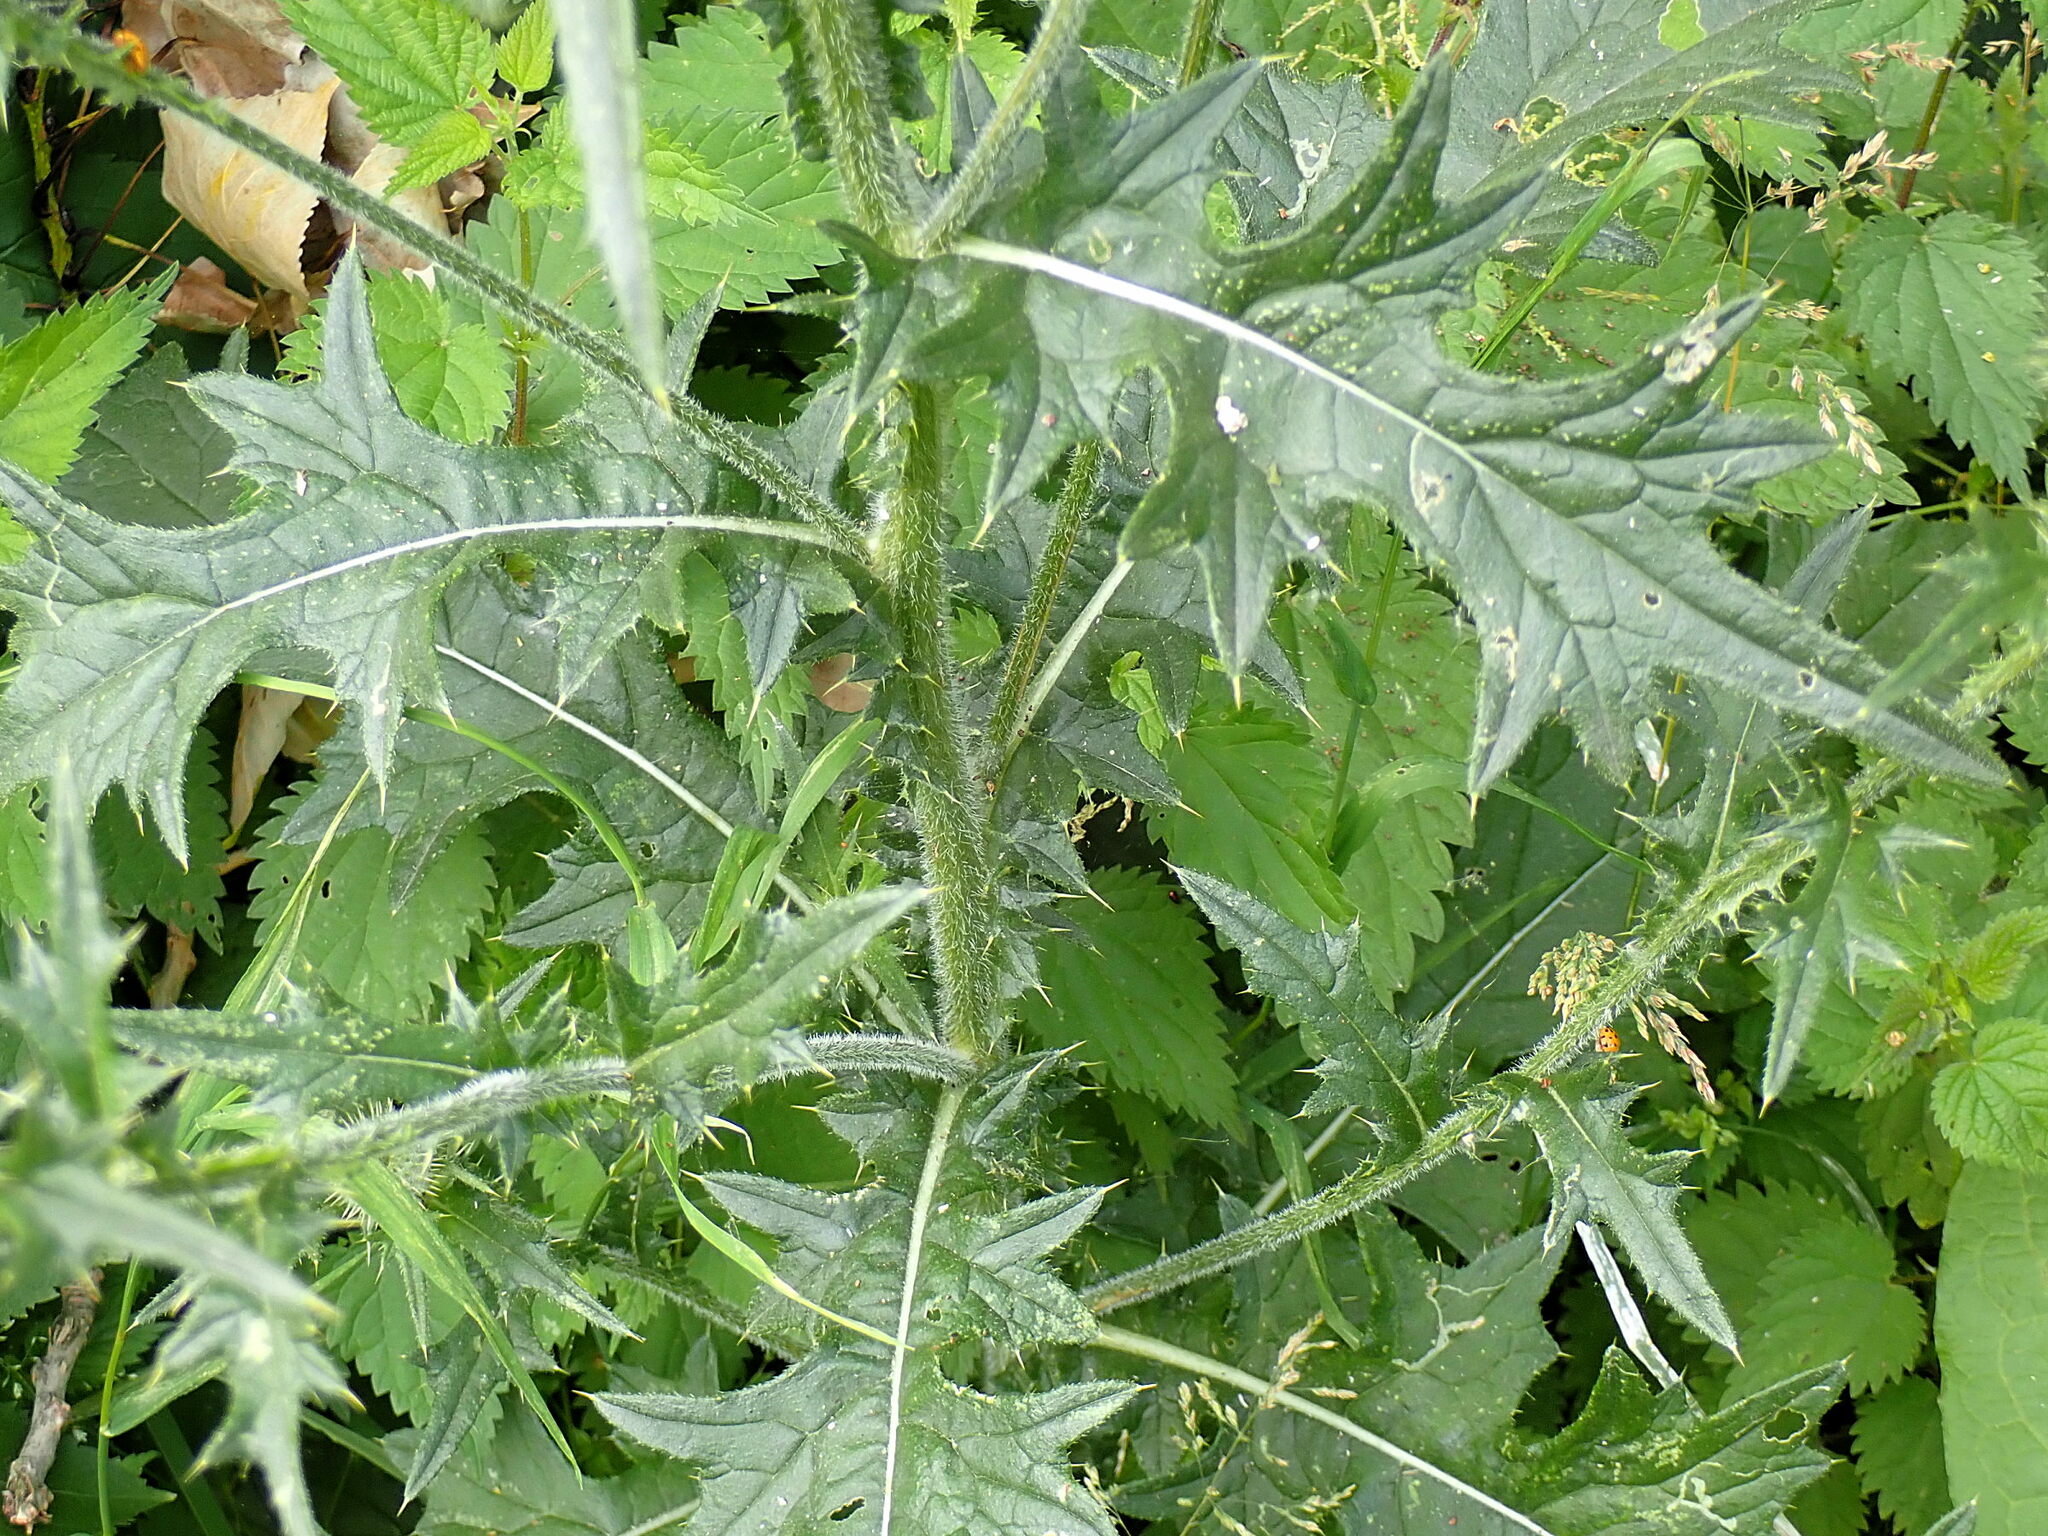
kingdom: Plantae
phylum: Tracheophyta
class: Magnoliopsida
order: Asterales
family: Asteraceae
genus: Cirsium
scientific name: Cirsium vulgare
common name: Bull thistle
